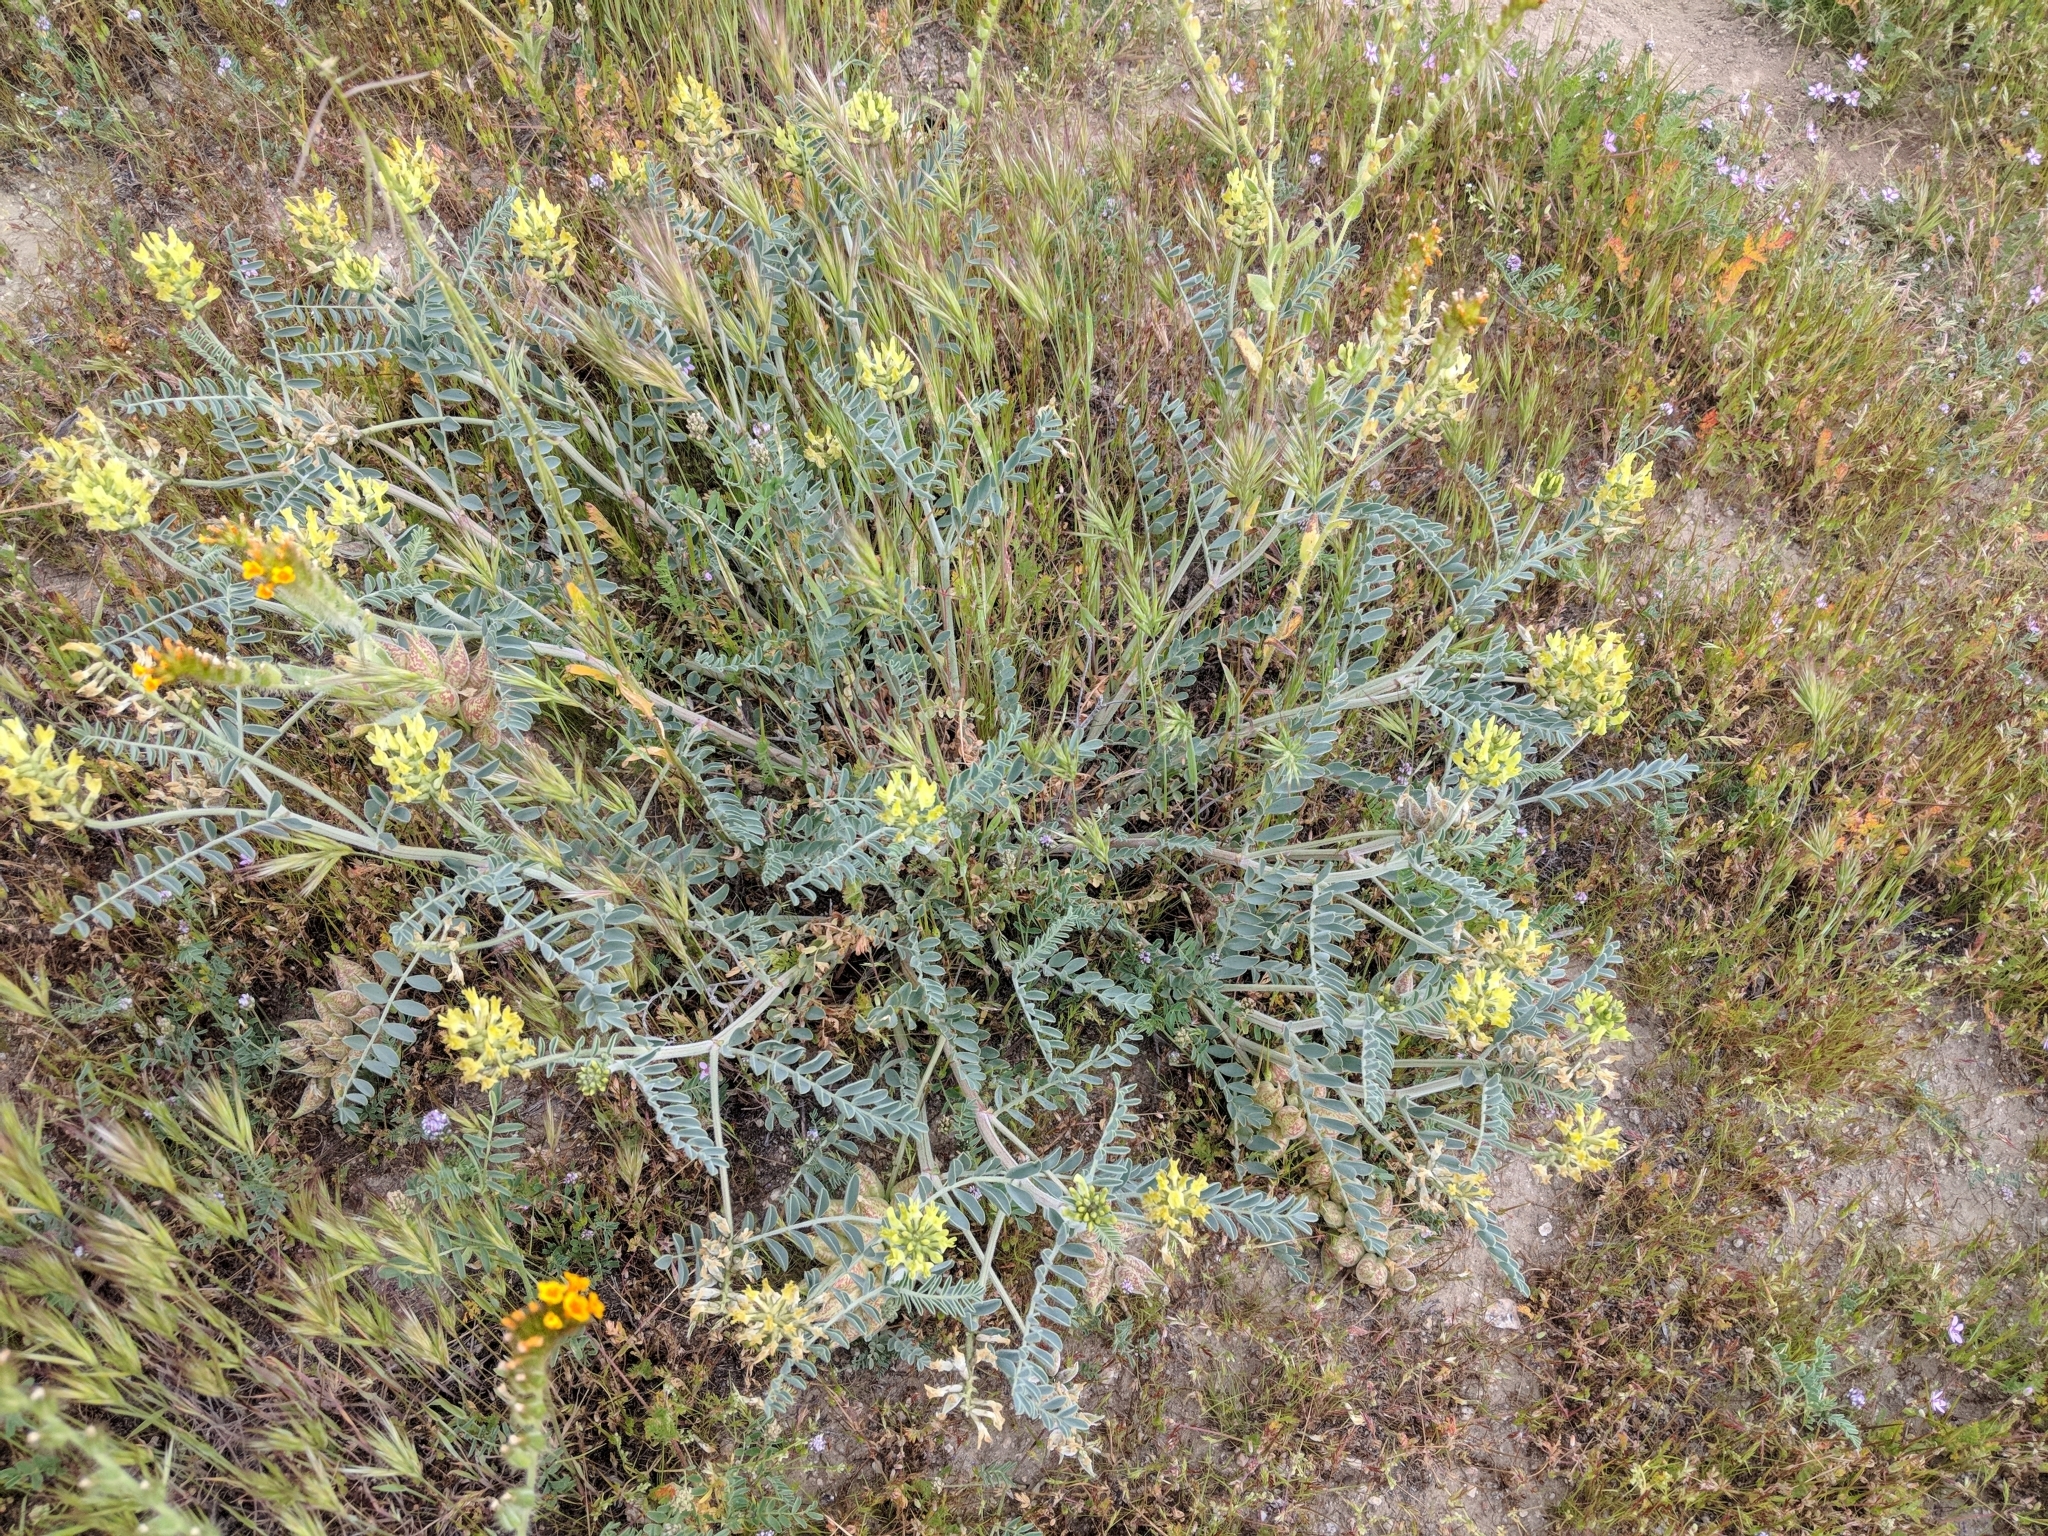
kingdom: Plantae
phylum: Tracheophyta
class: Magnoliopsida
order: Fabales
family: Fabaceae
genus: Astragalus
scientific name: Astragalus lentiginosus
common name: Freckled milkvetch
